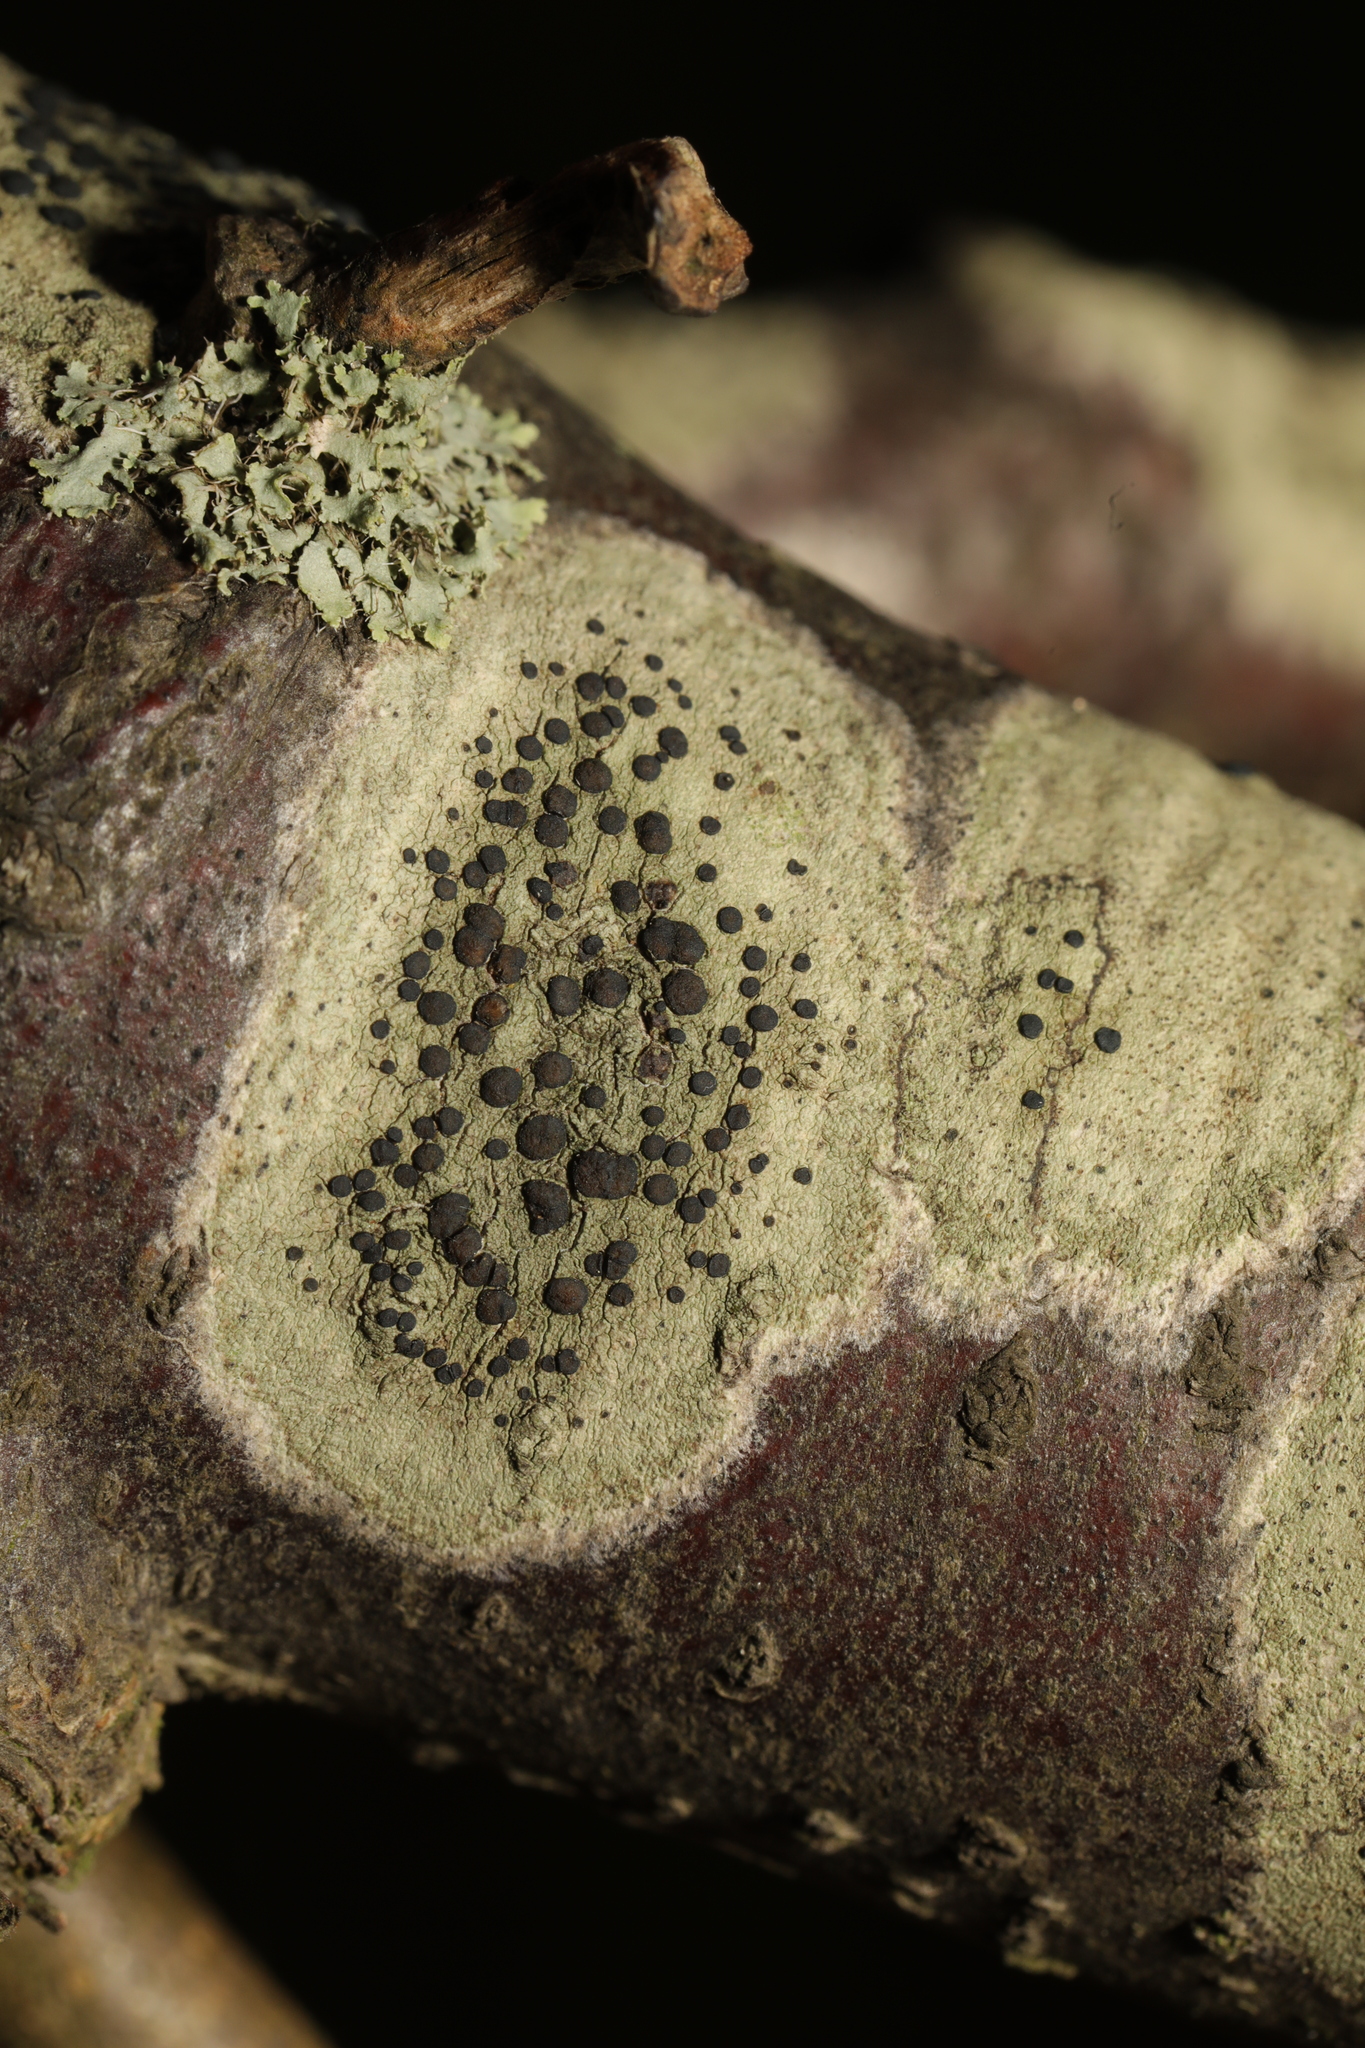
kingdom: Fungi
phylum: Ascomycota
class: Lecanoromycetes
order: Lecanorales
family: Lecanoraceae
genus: Lecidella
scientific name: Lecidella elaeochroma
